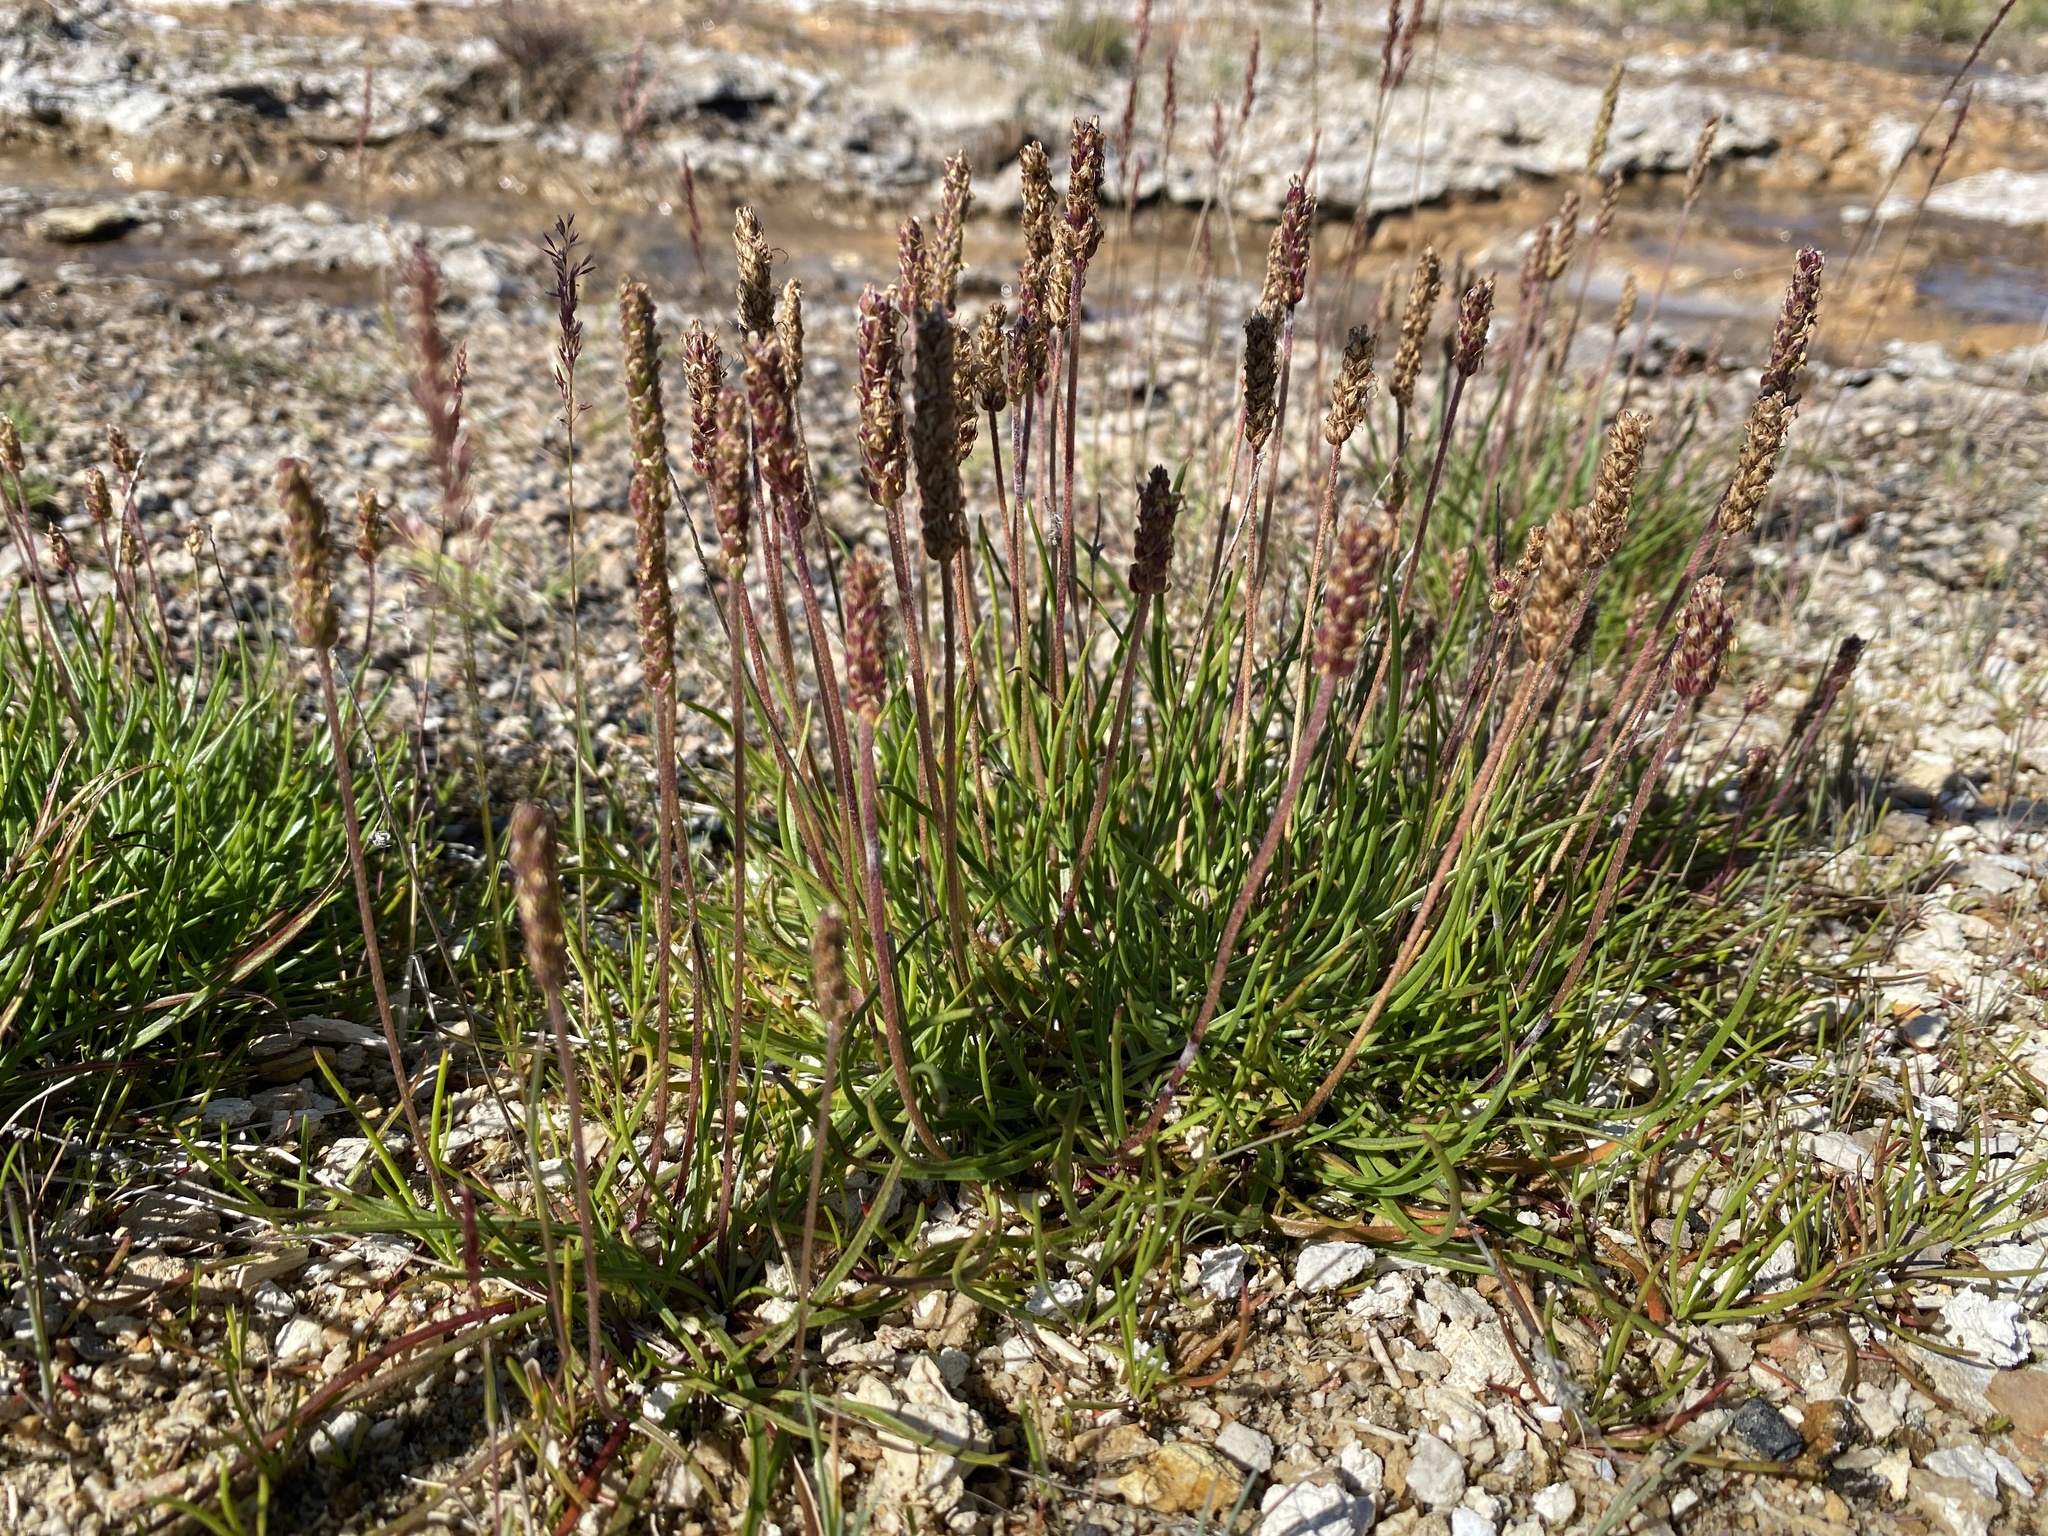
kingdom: Plantae
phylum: Tracheophyta
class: Magnoliopsida
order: Lamiales
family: Plantaginaceae
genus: Plantago
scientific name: Plantago maritima
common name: Sea plantain
